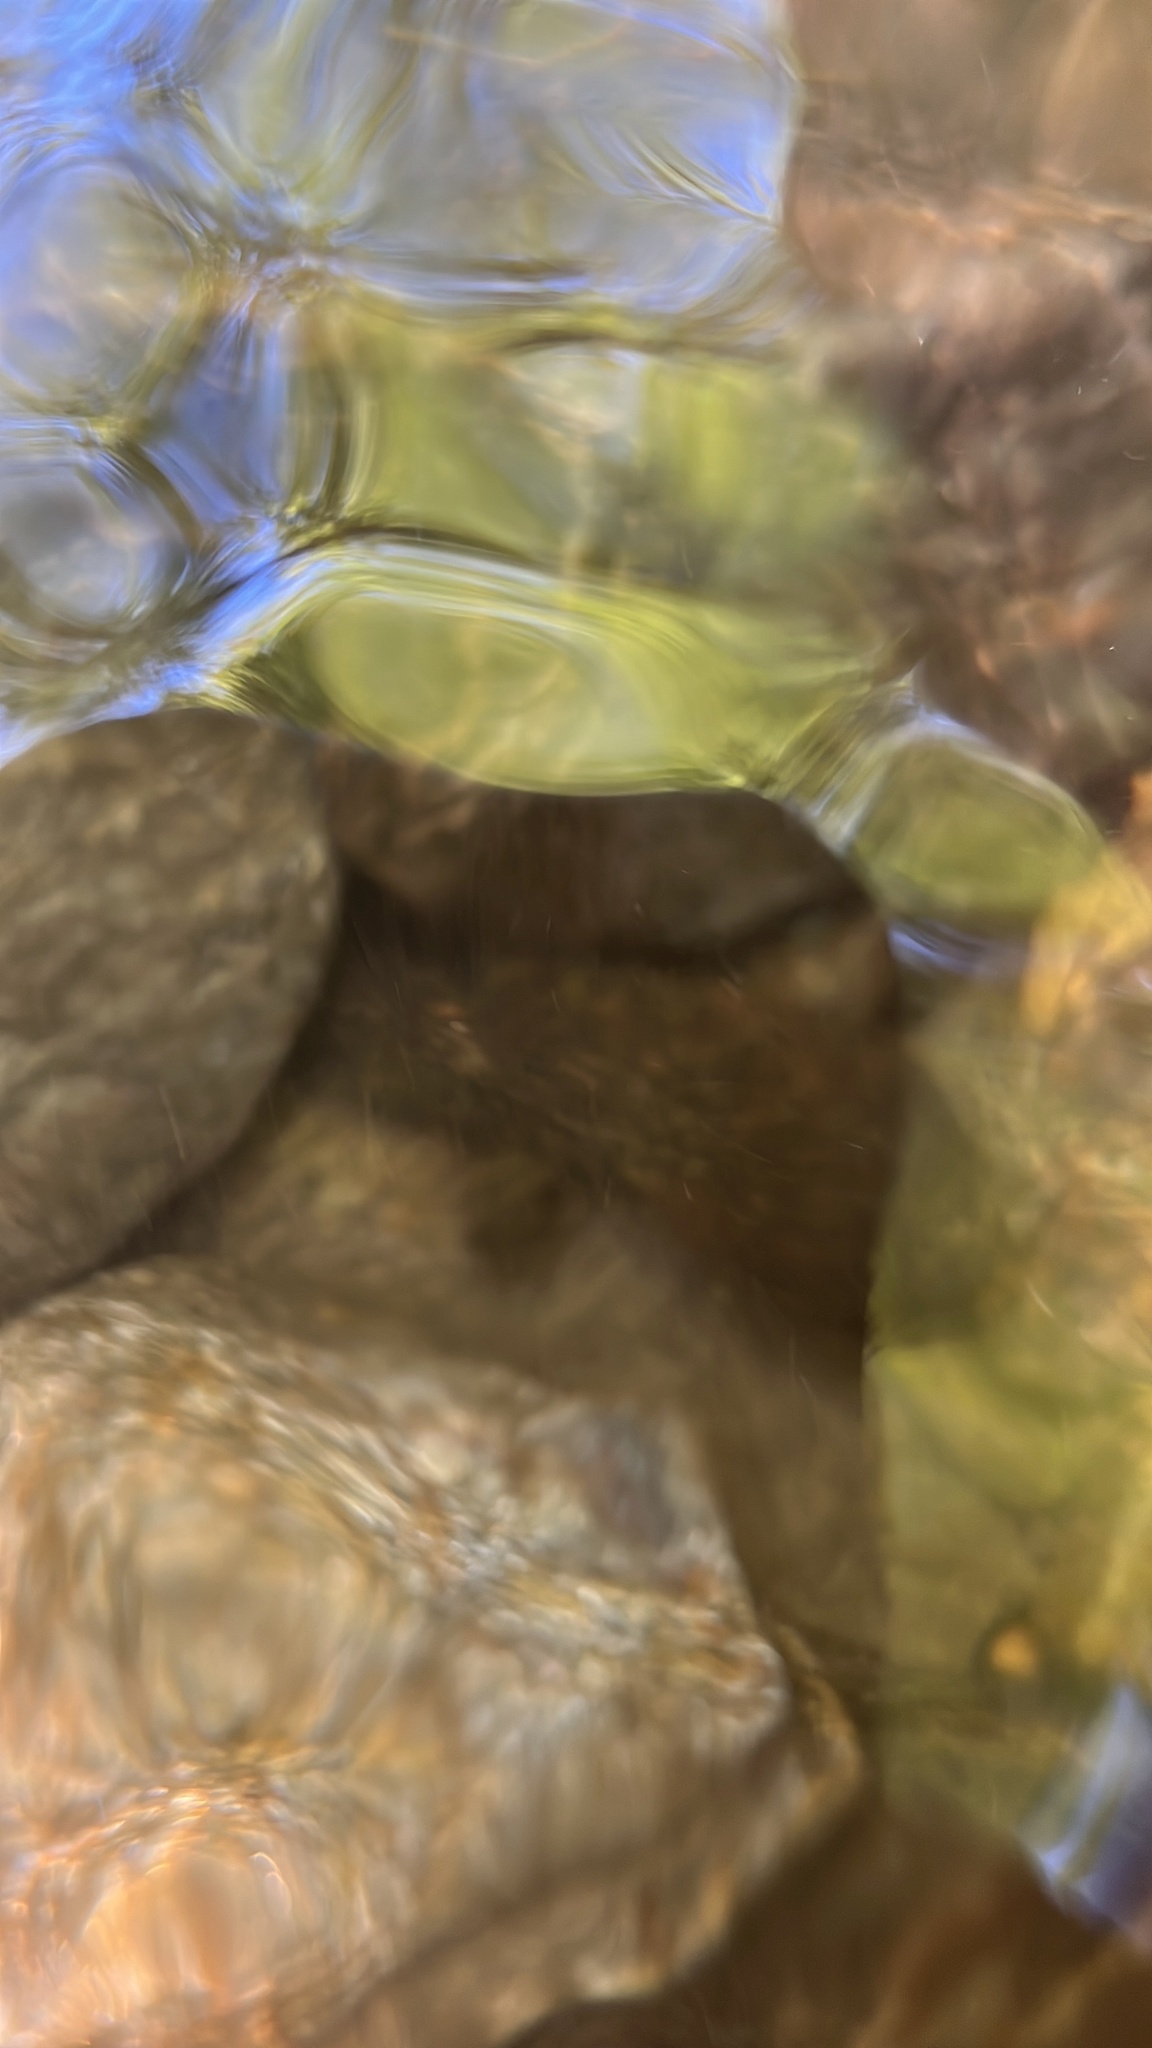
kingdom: Animalia
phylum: Chordata
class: Amphibia
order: Caudata
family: Cryptobranchidae
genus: Cryptobranchus
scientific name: Cryptobranchus alleganiensis
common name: Hellbender
